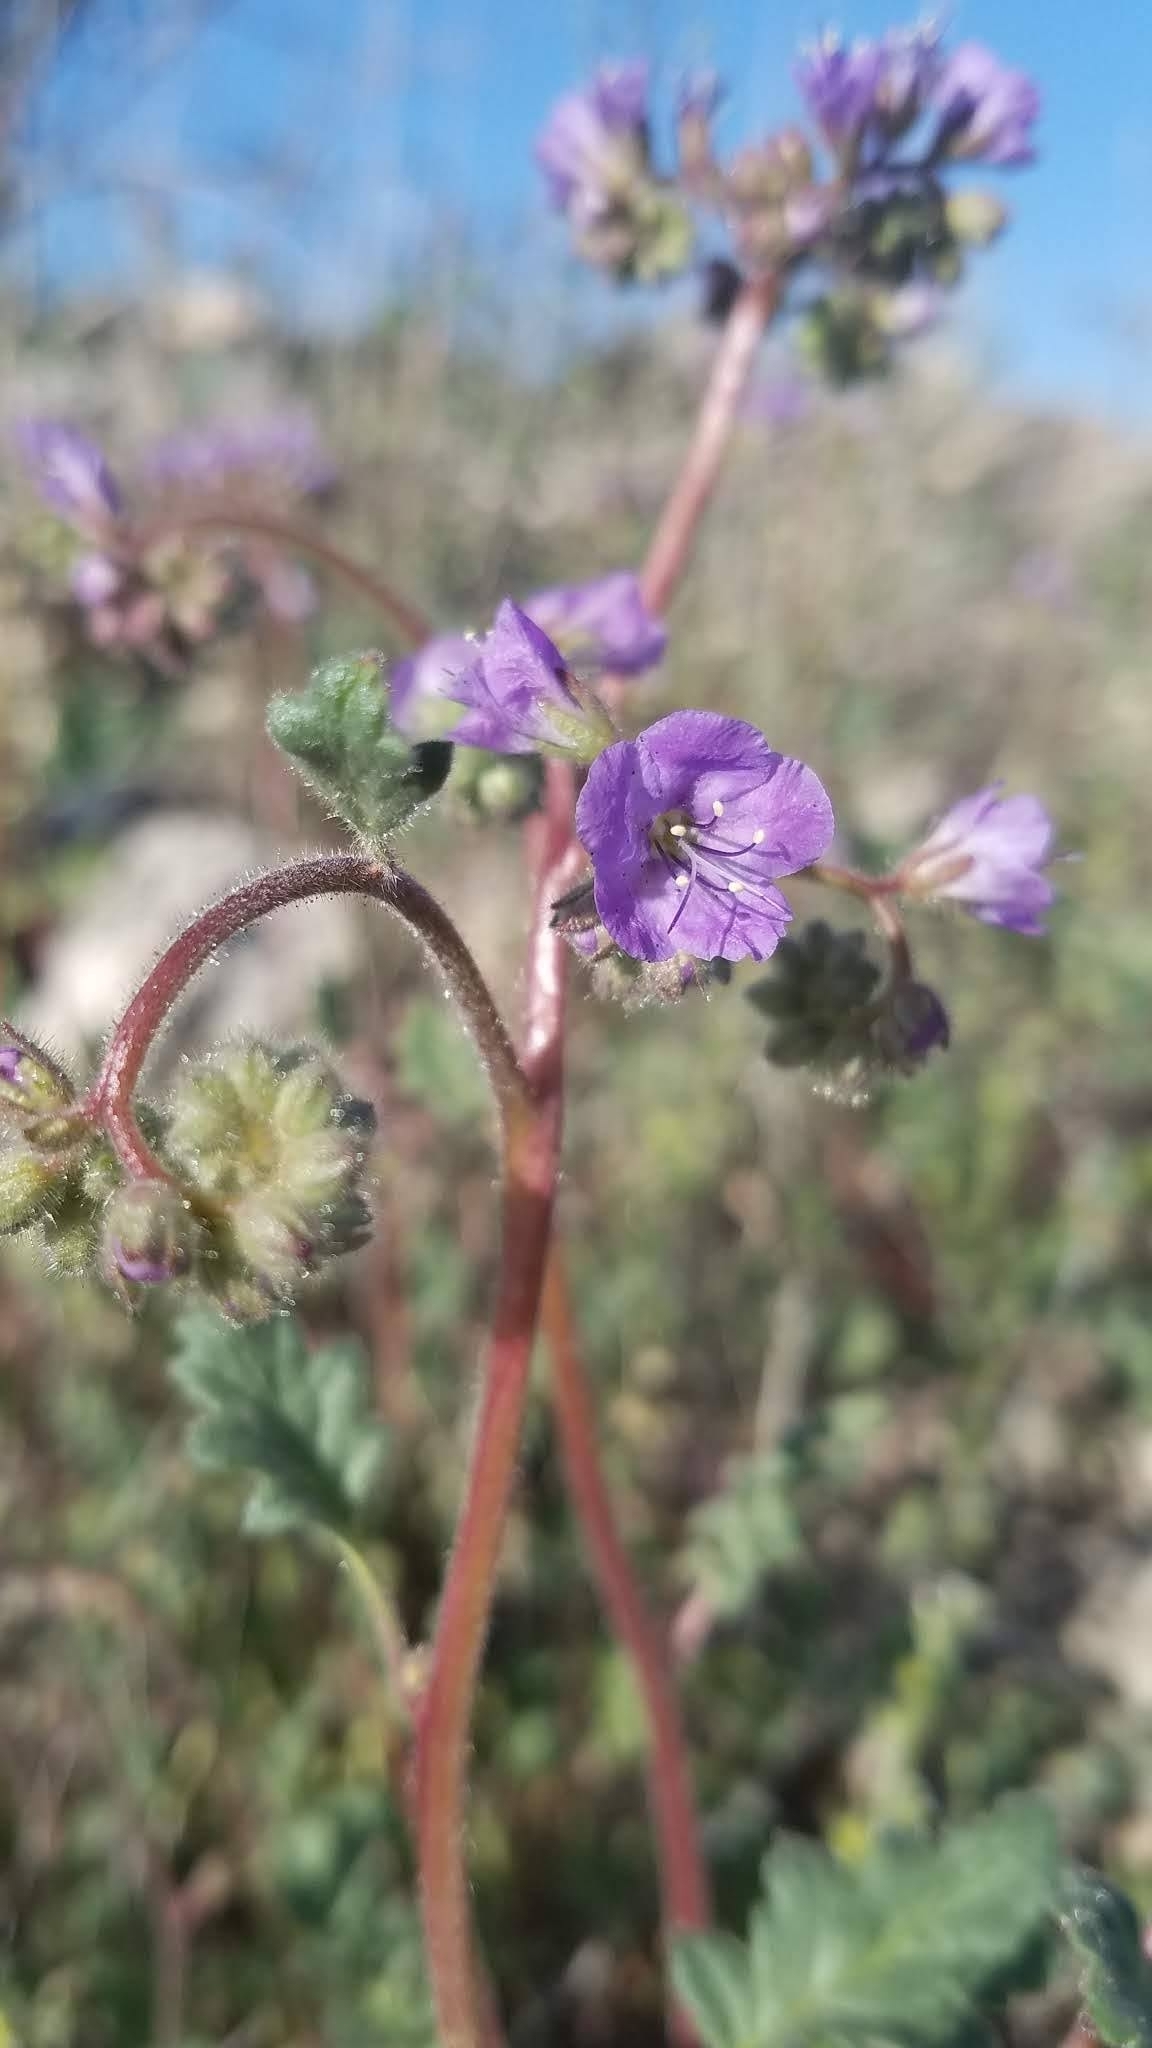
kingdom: Plantae
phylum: Tracheophyta
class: Magnoliopsida
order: Boraginales
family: Hydrophyllaceae
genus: Phacelia
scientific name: Phacelia crenulata
